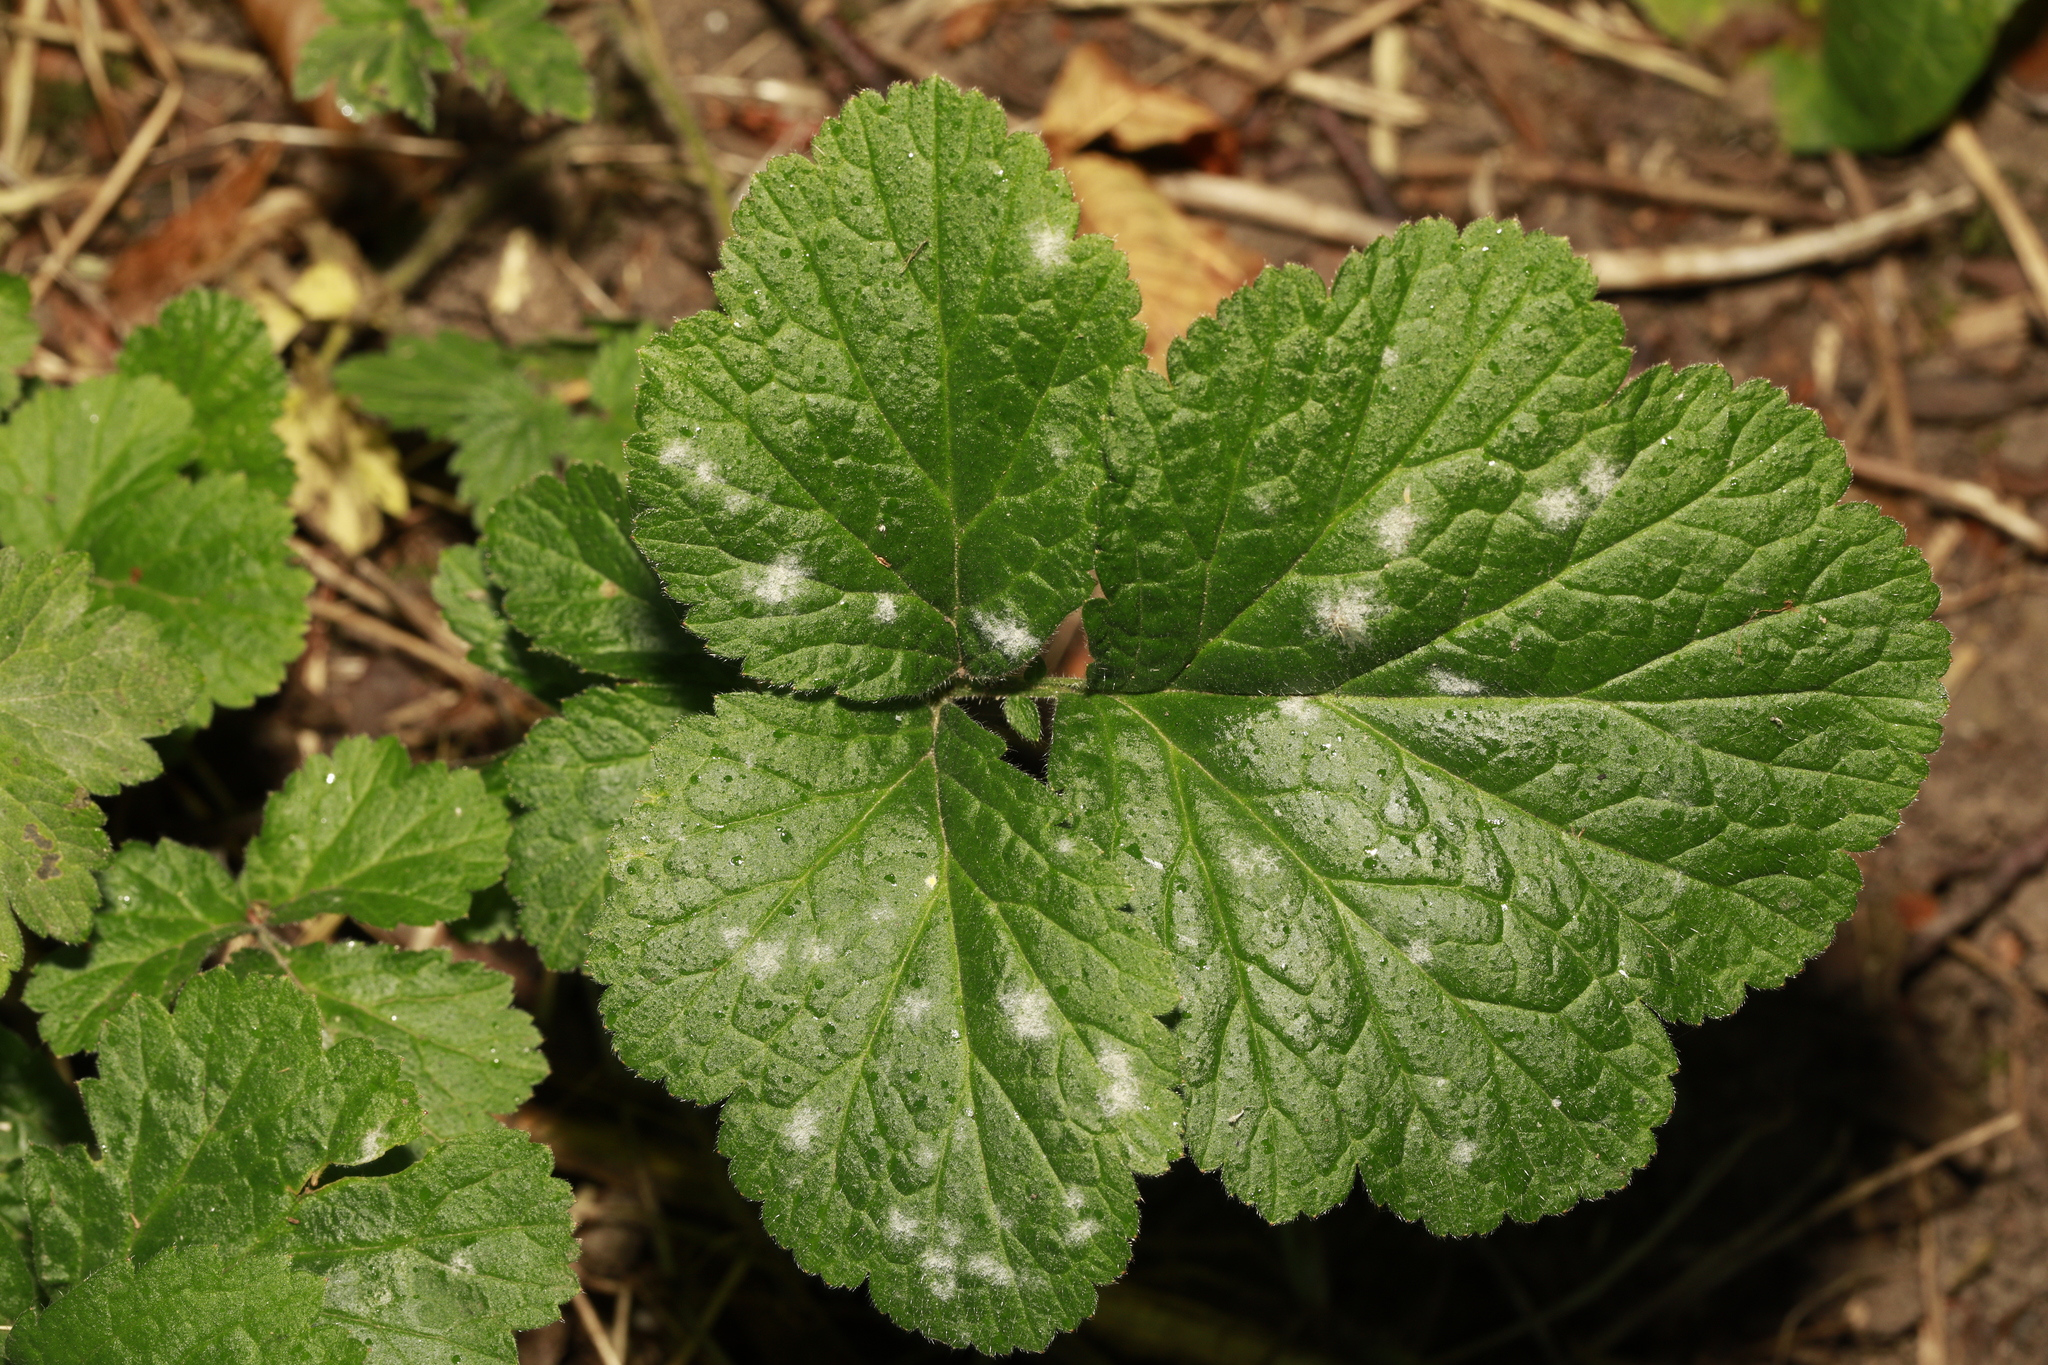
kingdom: Fungi
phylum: Ascomycota
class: Leotiomycetes
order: Helotiales
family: Erysiphaceae
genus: Erysiphe
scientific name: Erysiphe heraclei
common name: Umbellifer mildew
